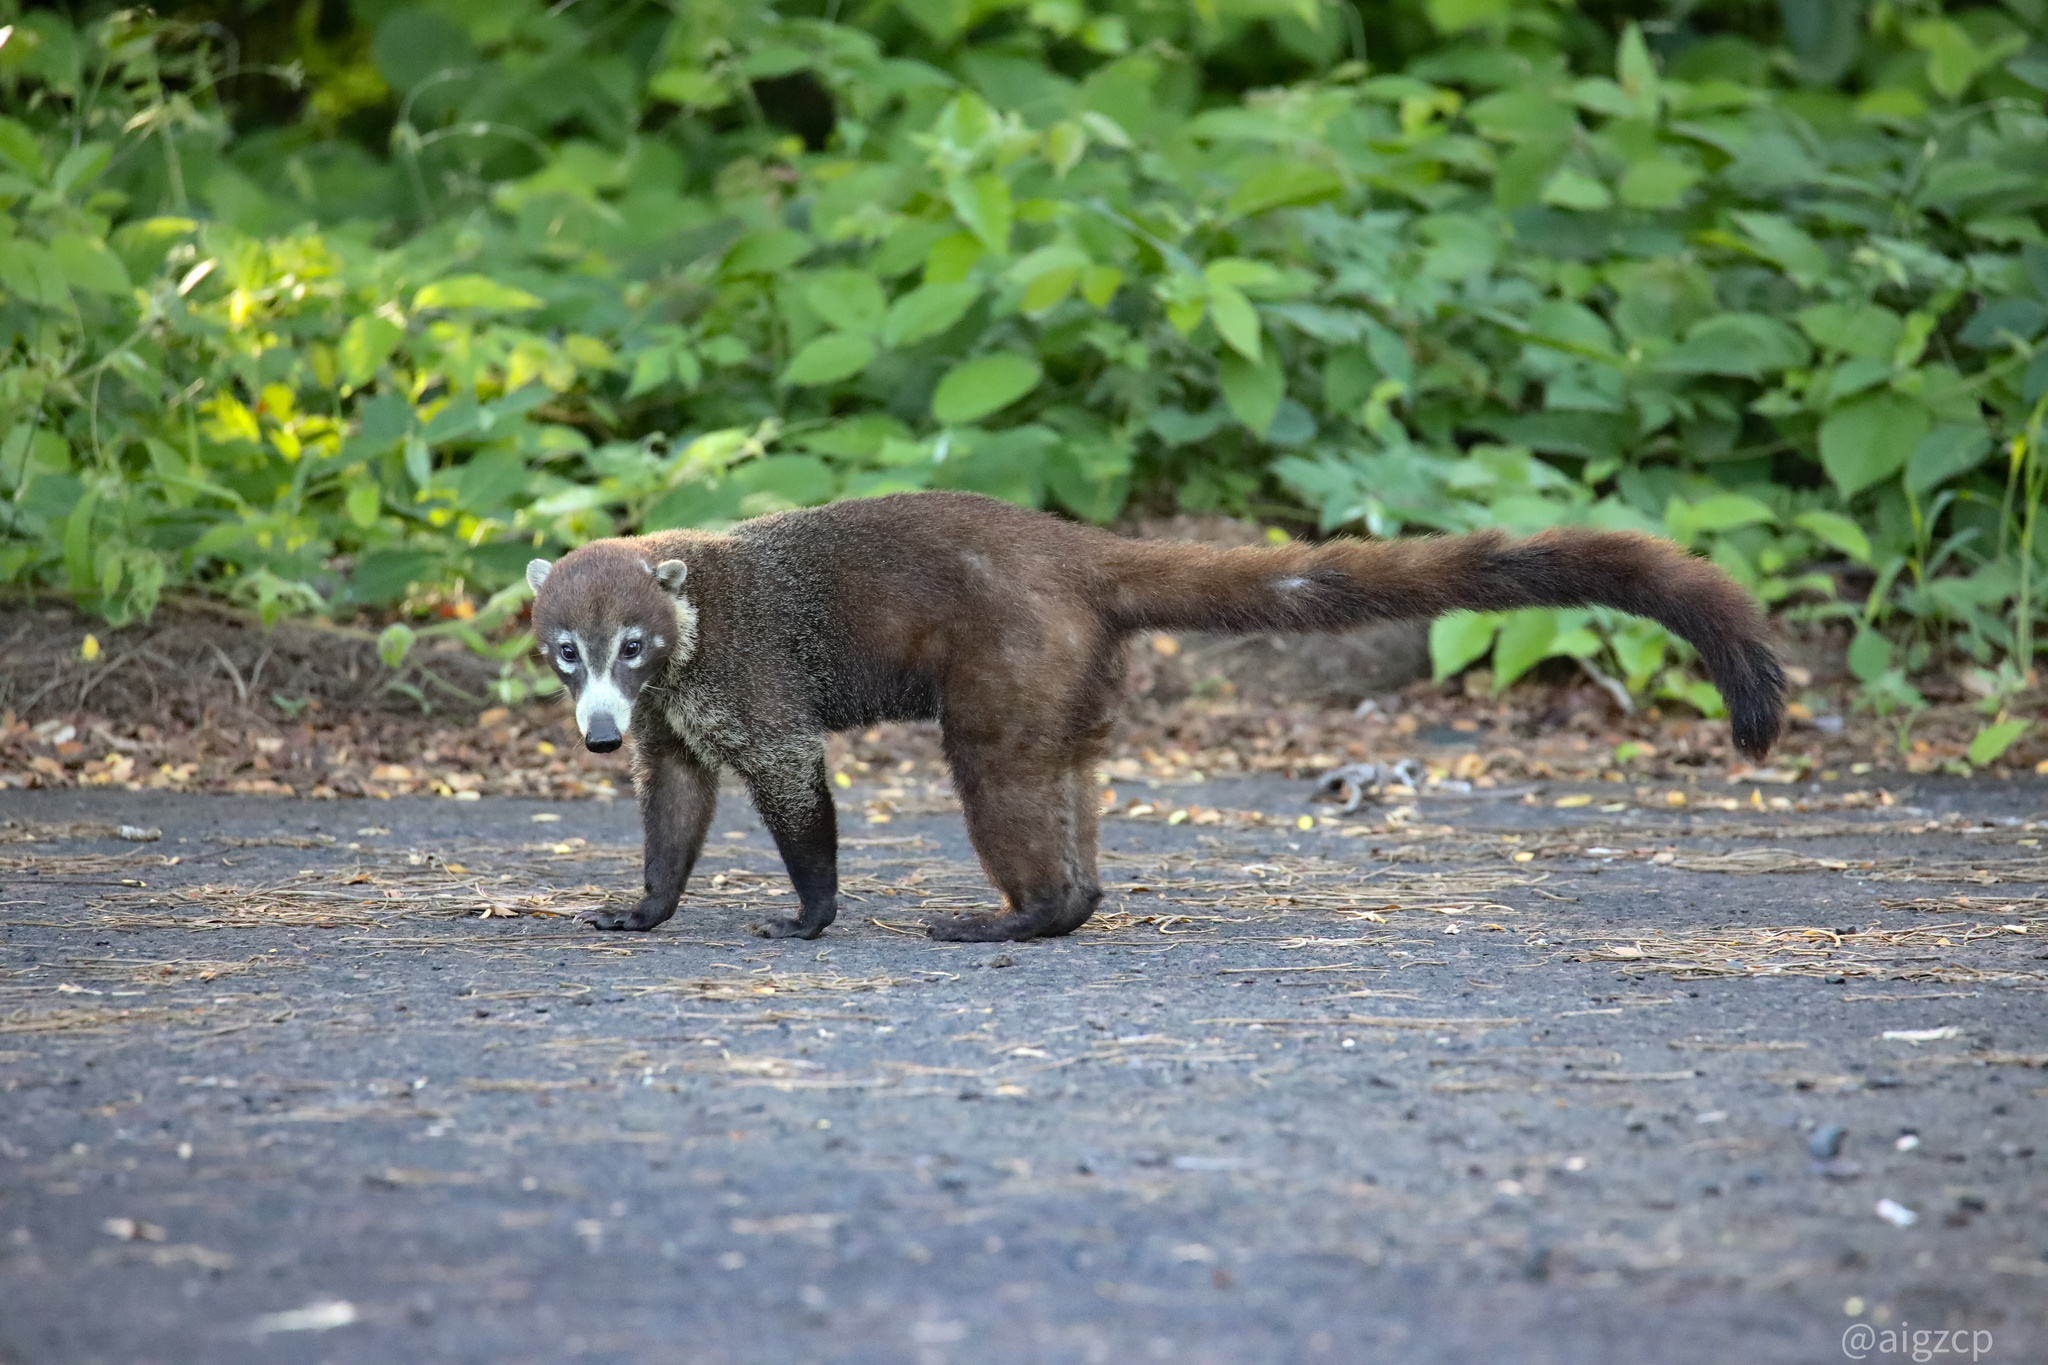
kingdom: Animalia
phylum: Chordata
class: Mammalia
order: Carnivora
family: Procyonidae
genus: Nasua
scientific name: Nasua narica
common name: White-nosed coati
